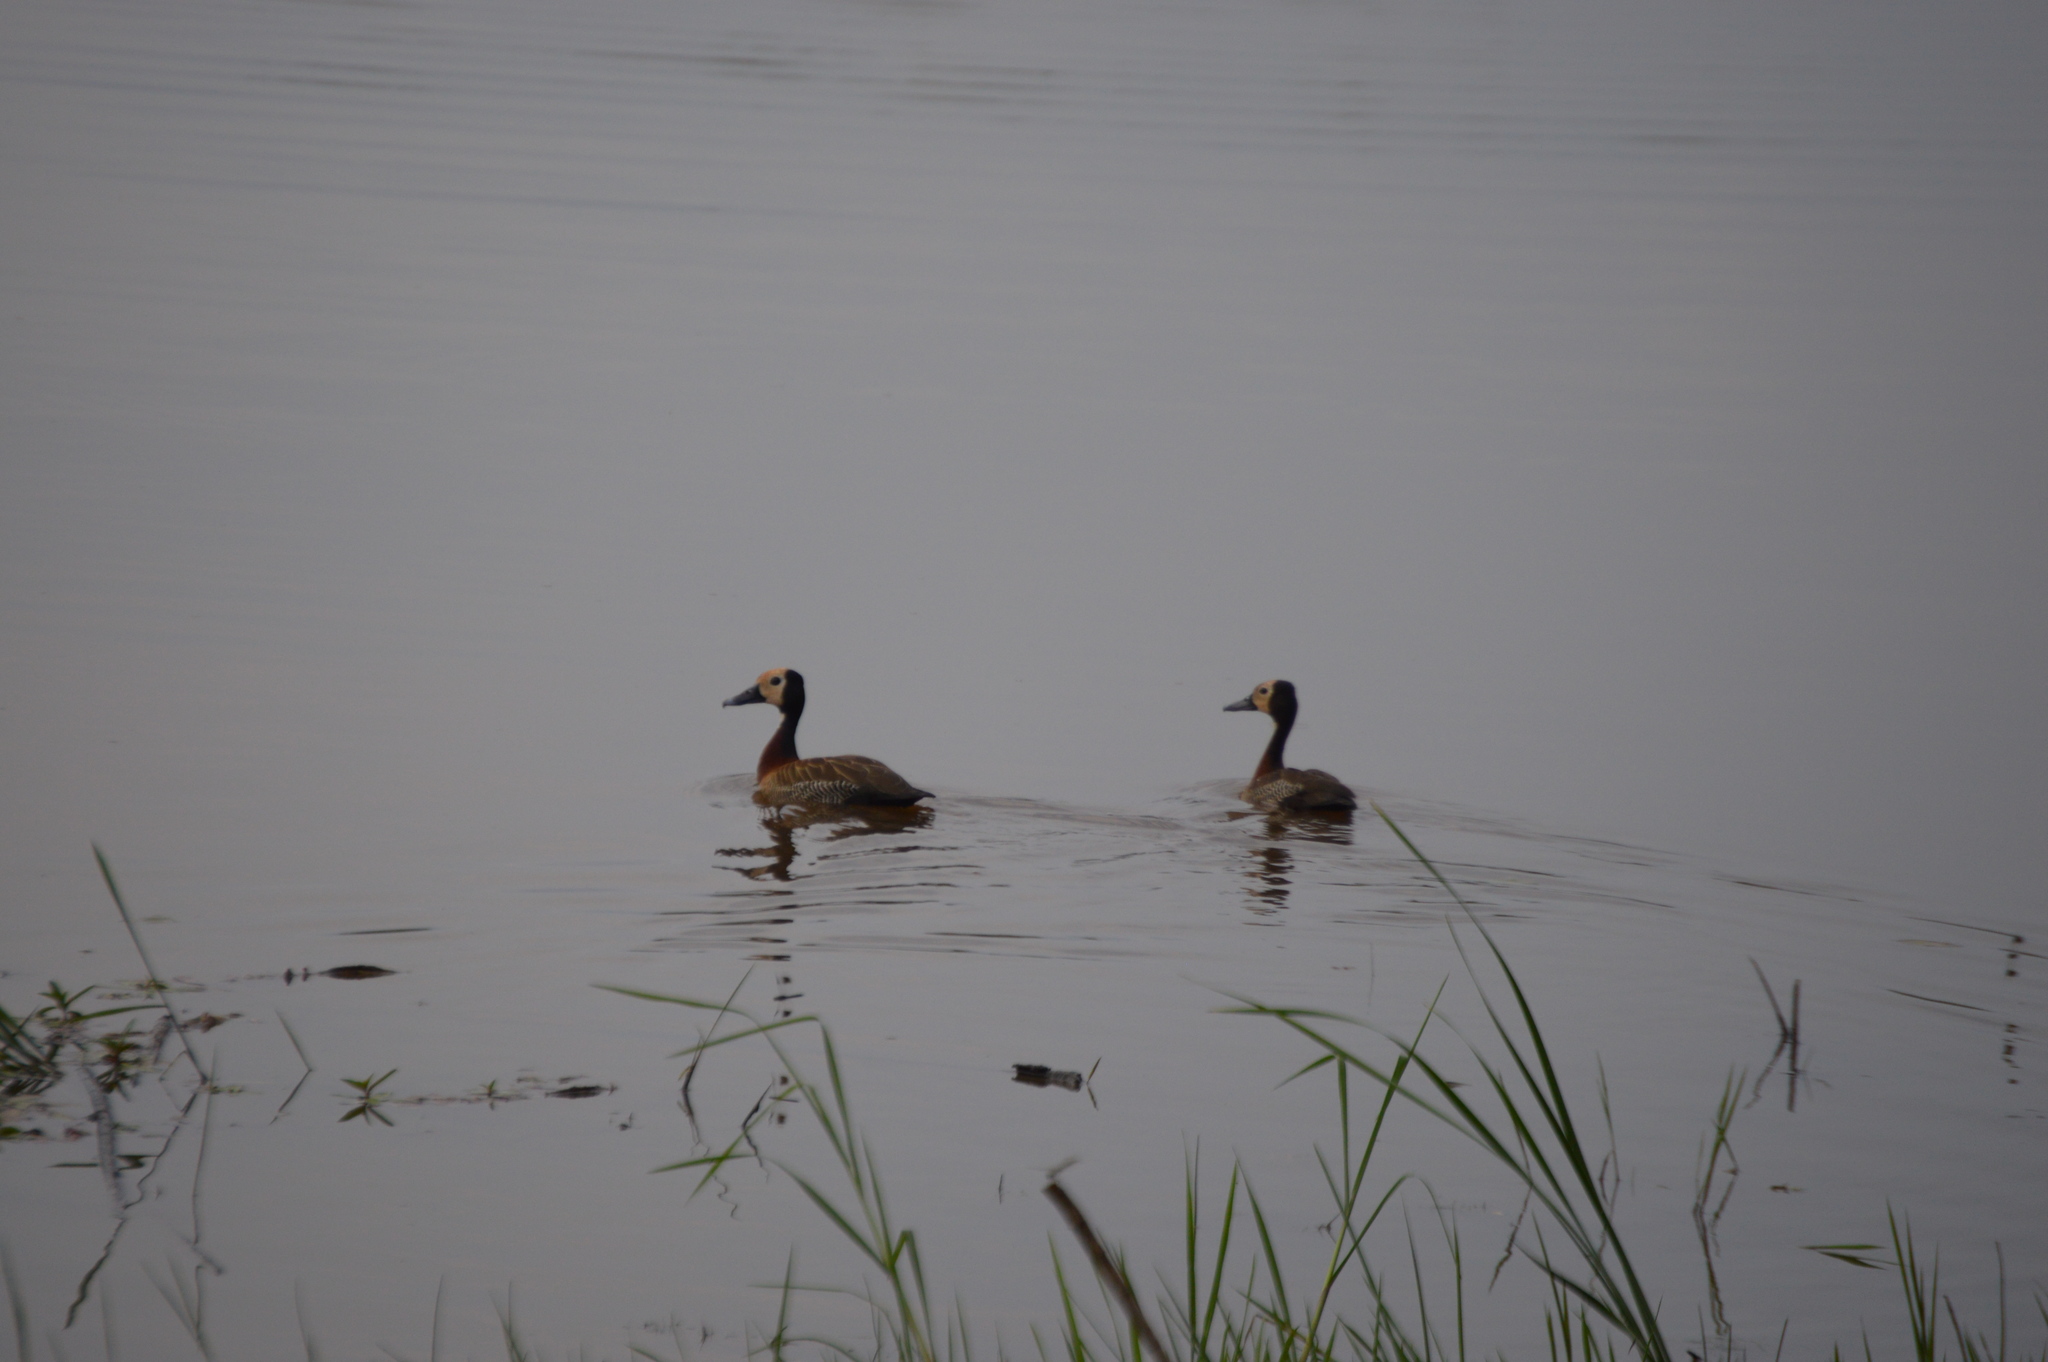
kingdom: Animalia
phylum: Chordata
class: Aves
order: Anseriformes
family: Anatidae
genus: Dendrocygna
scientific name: Dendrocygna viduata
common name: White-faced whistling duck
